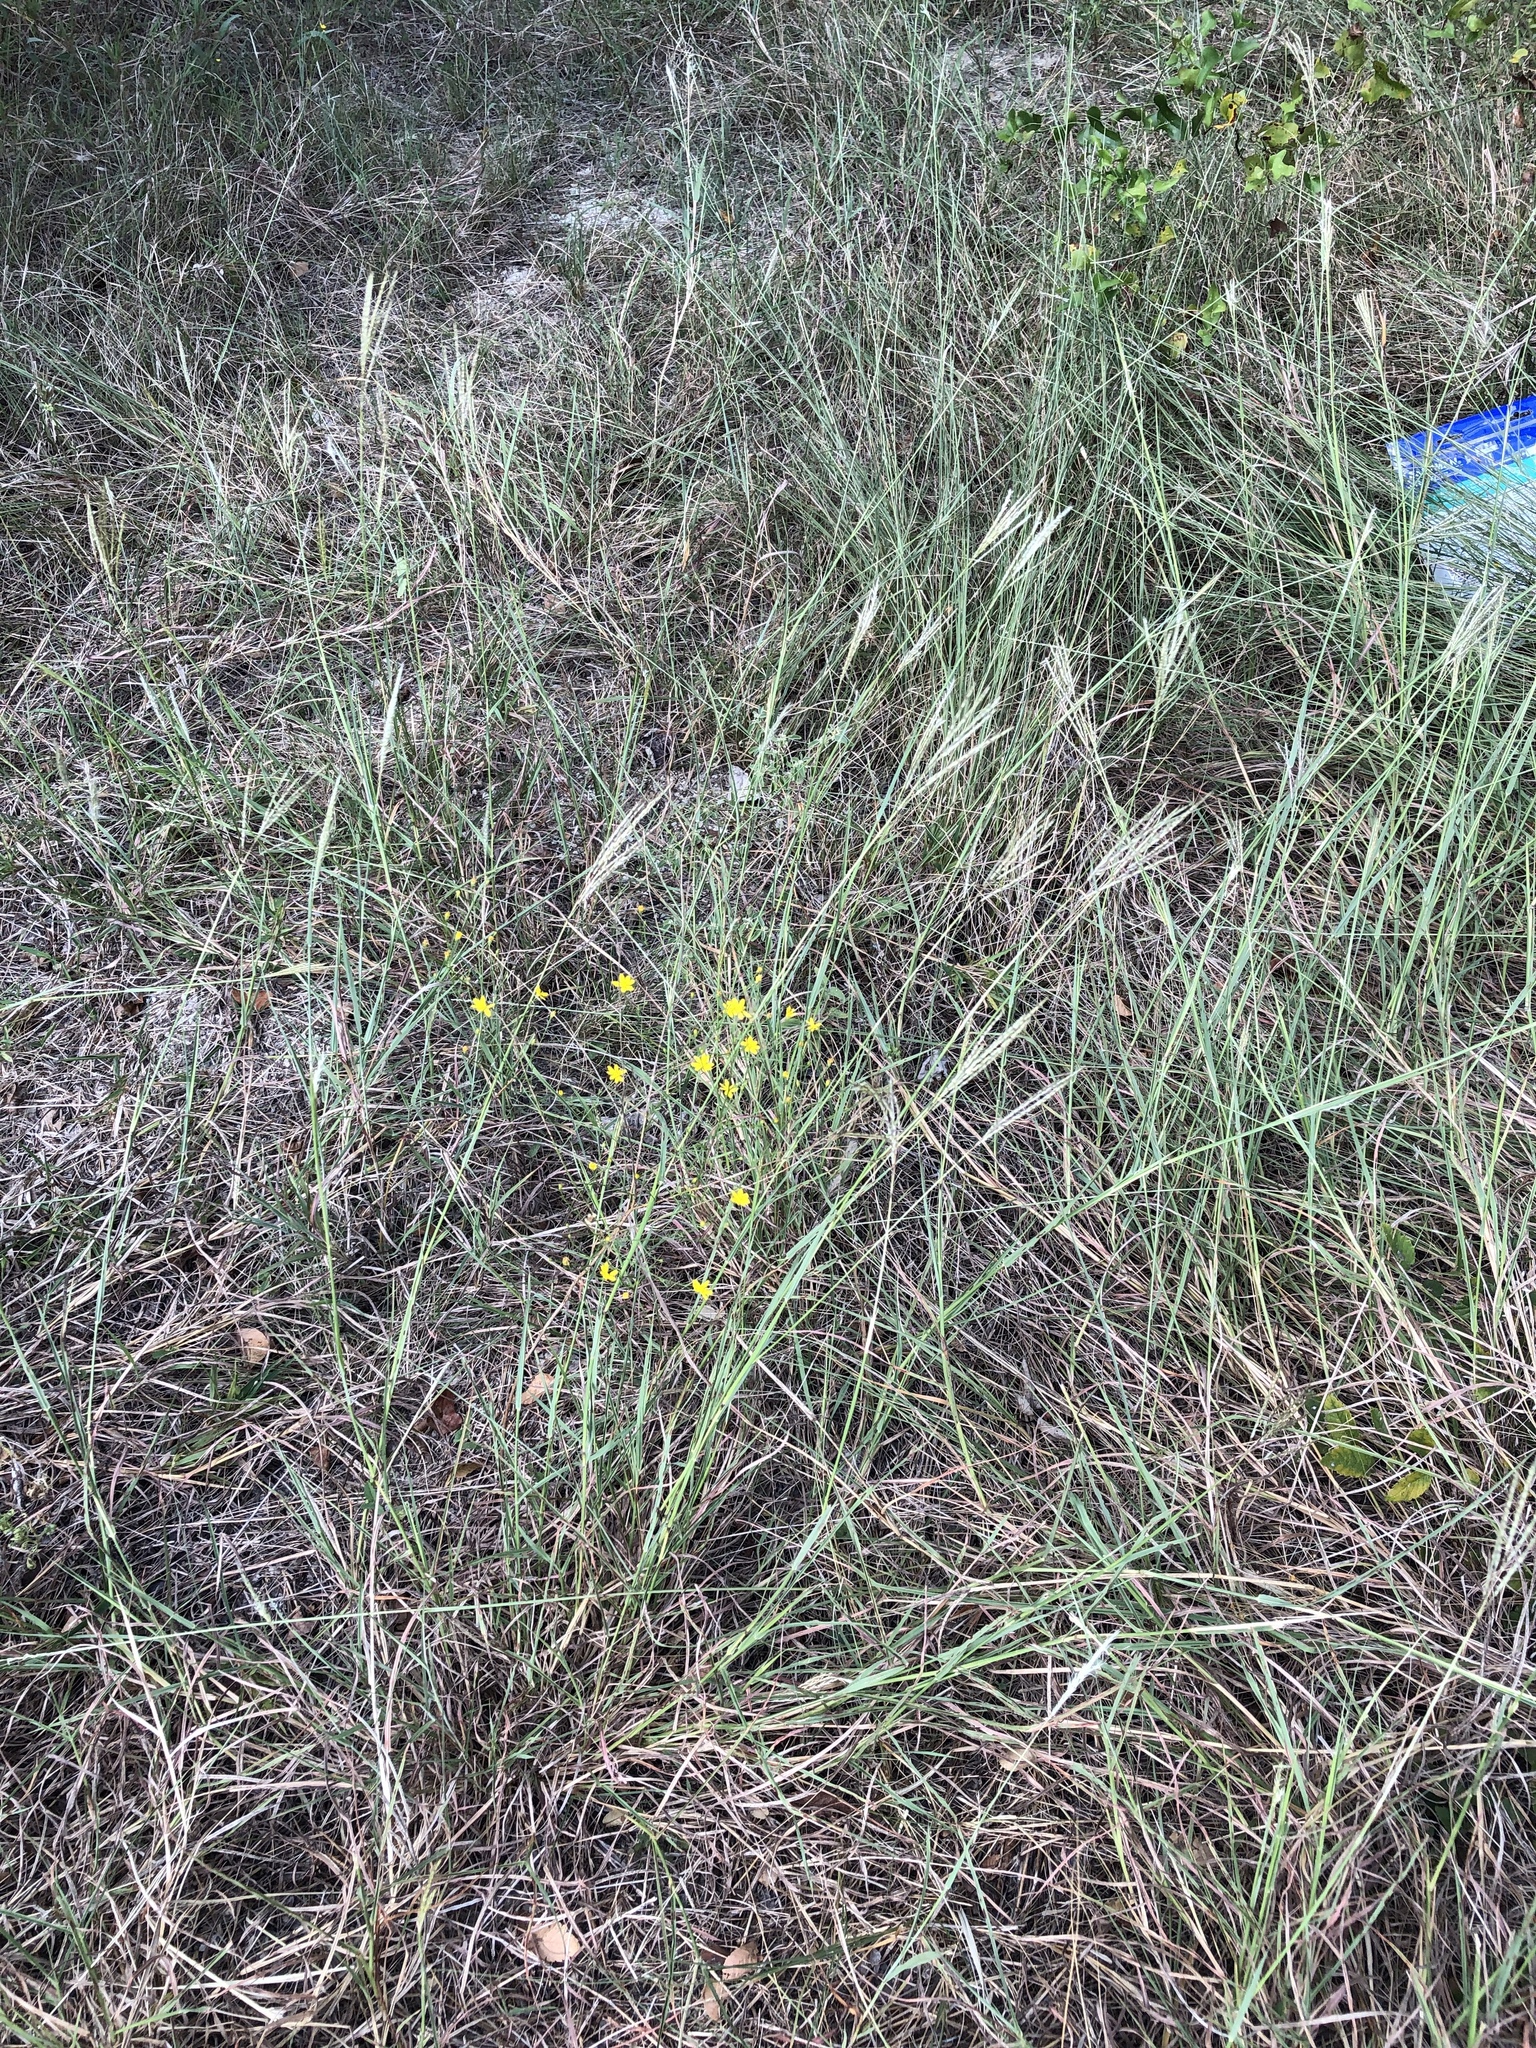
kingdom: Plantae
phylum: Tracheophyta
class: Liliopsida
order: Poales
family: Poaceae
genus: Bothriochloa
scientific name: Bothriochloa ischaemum
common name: Yellow bluestem
